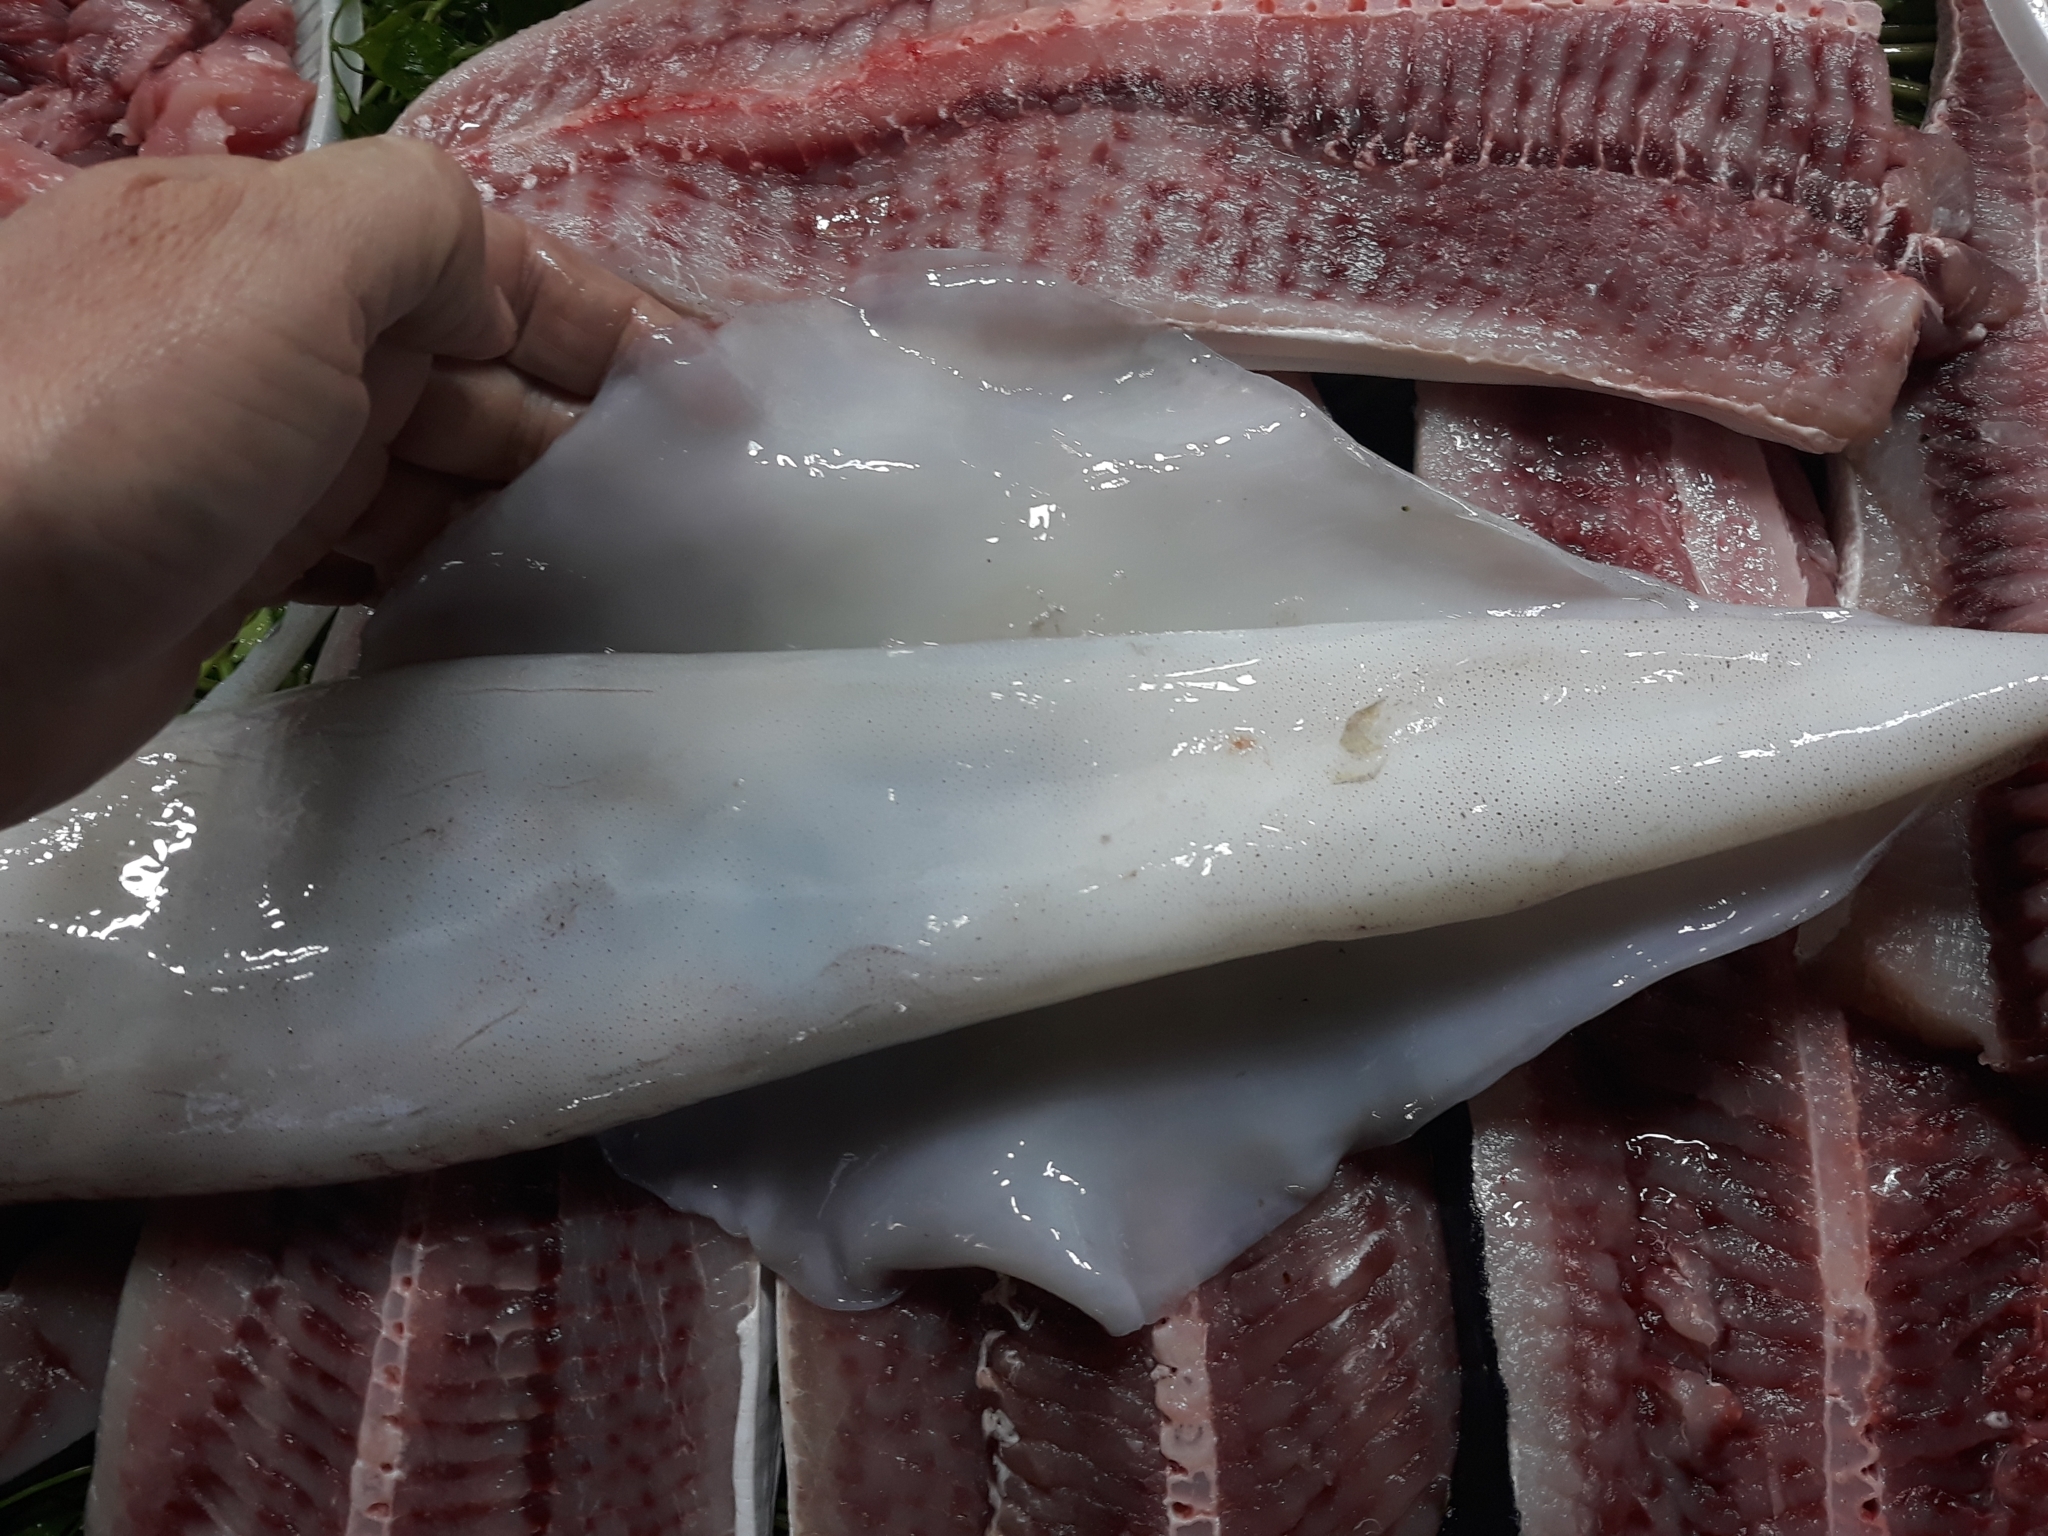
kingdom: Animalia
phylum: Mollusca
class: Cephalopoda
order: Myopsida
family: Loliginidae
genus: Loligo
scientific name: Loligo vulgaris
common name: European squid
